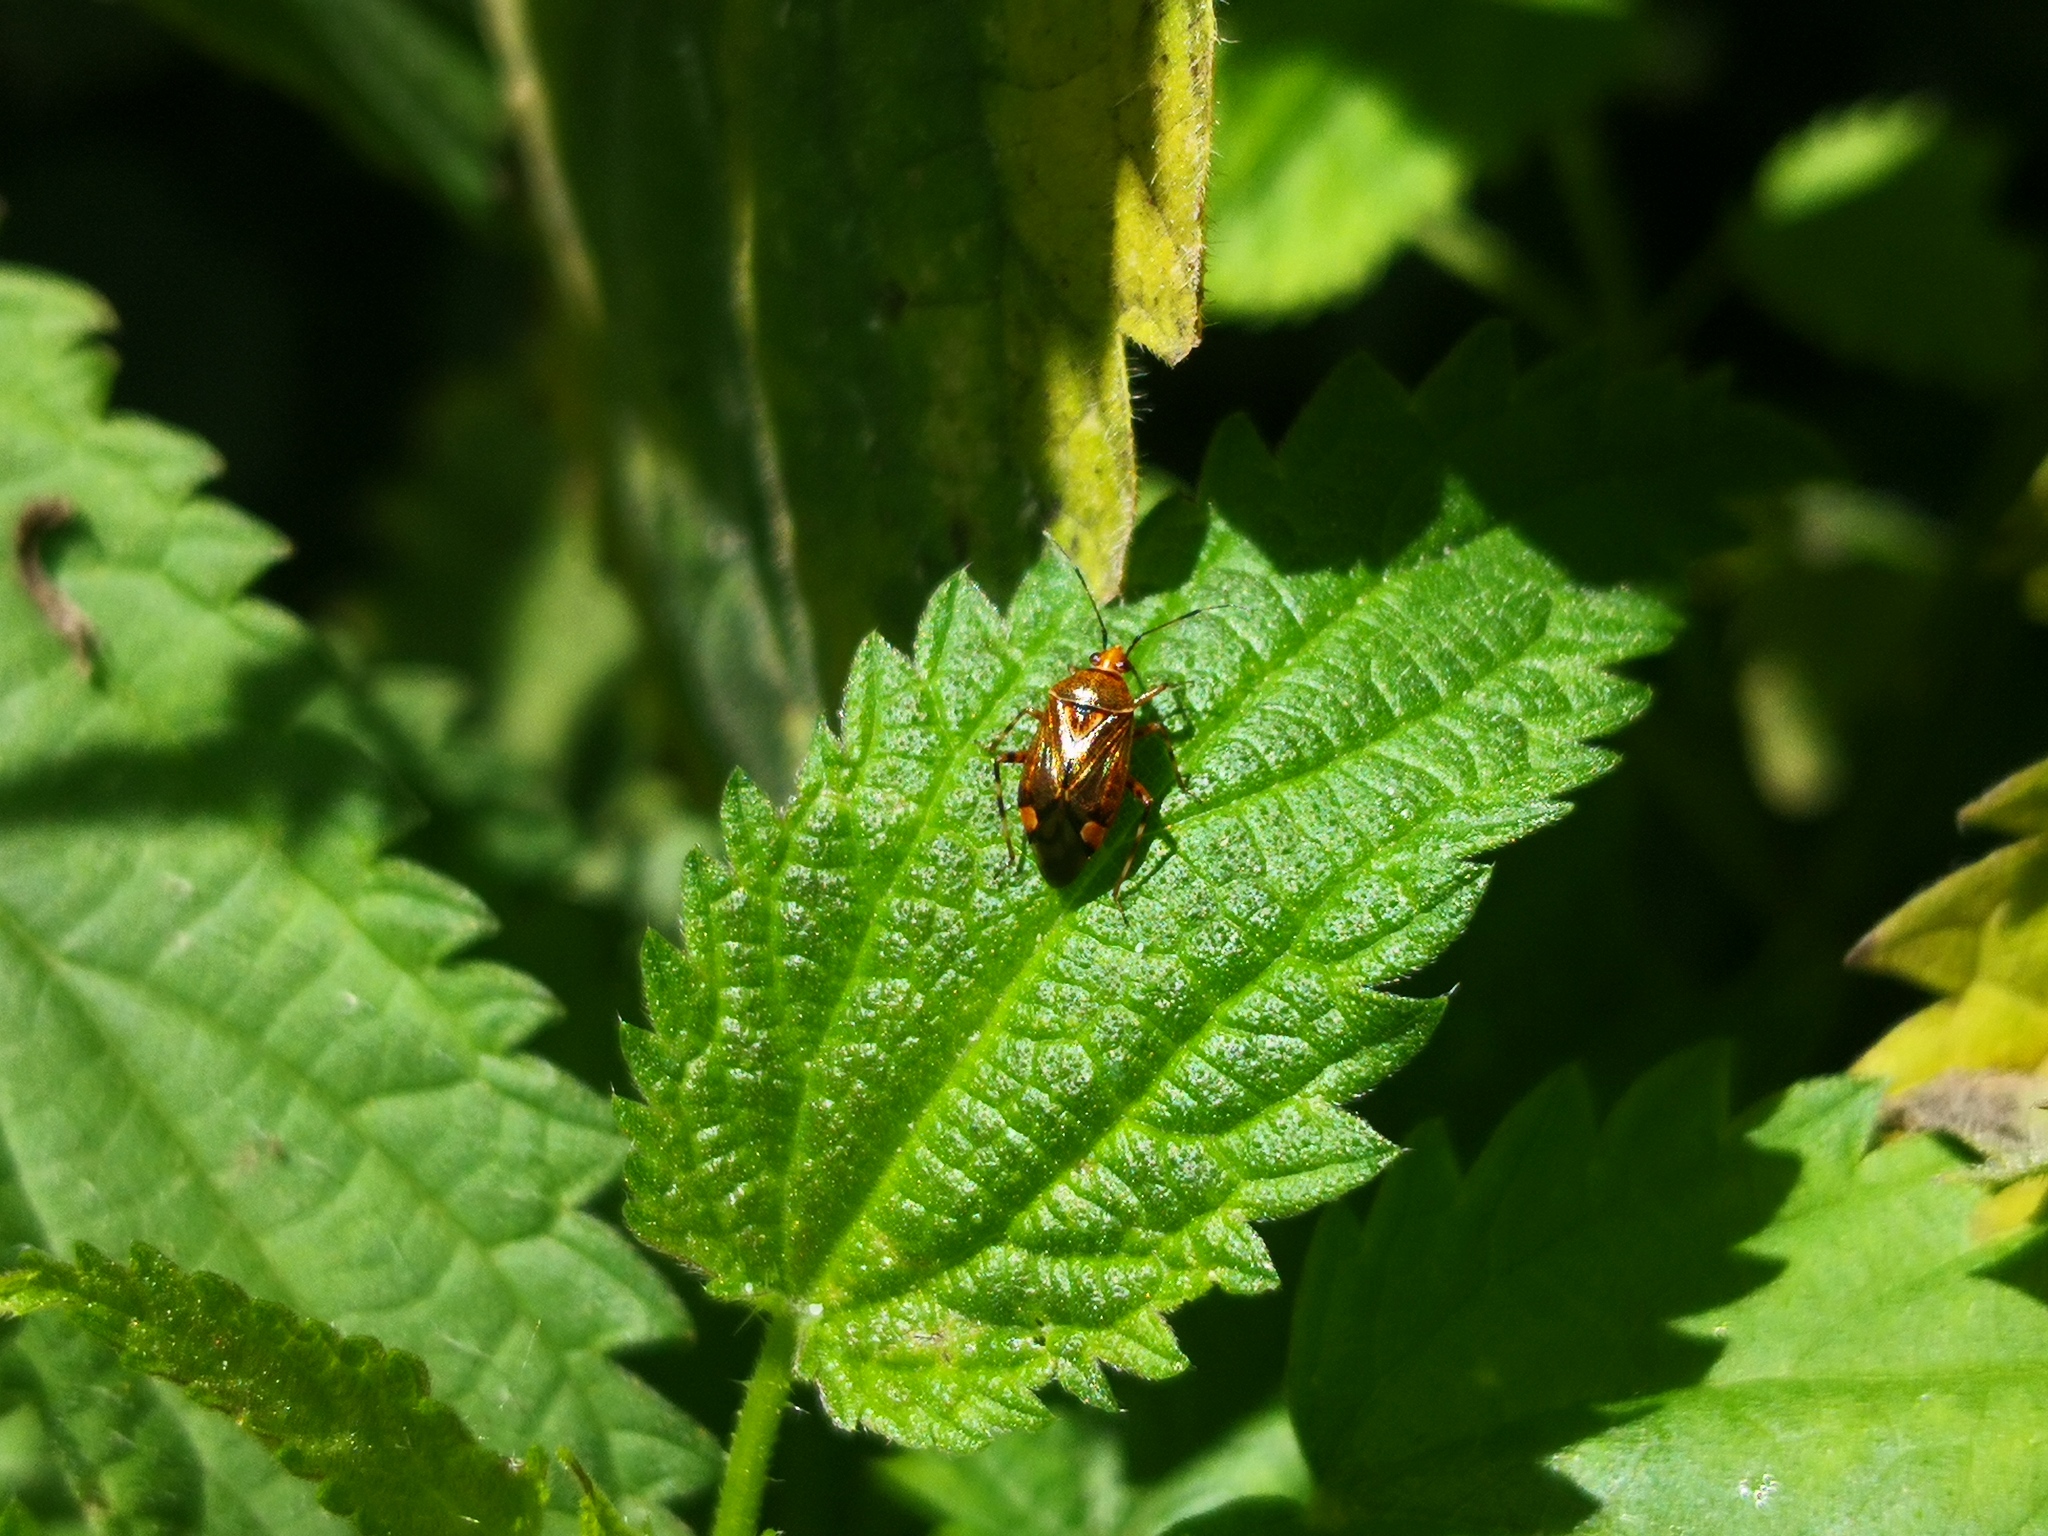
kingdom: Animalia
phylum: Arthropoda
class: Insecta
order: Hemiptera
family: Miridae
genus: Deraeocoris
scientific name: Deraeocoris flavilinea
